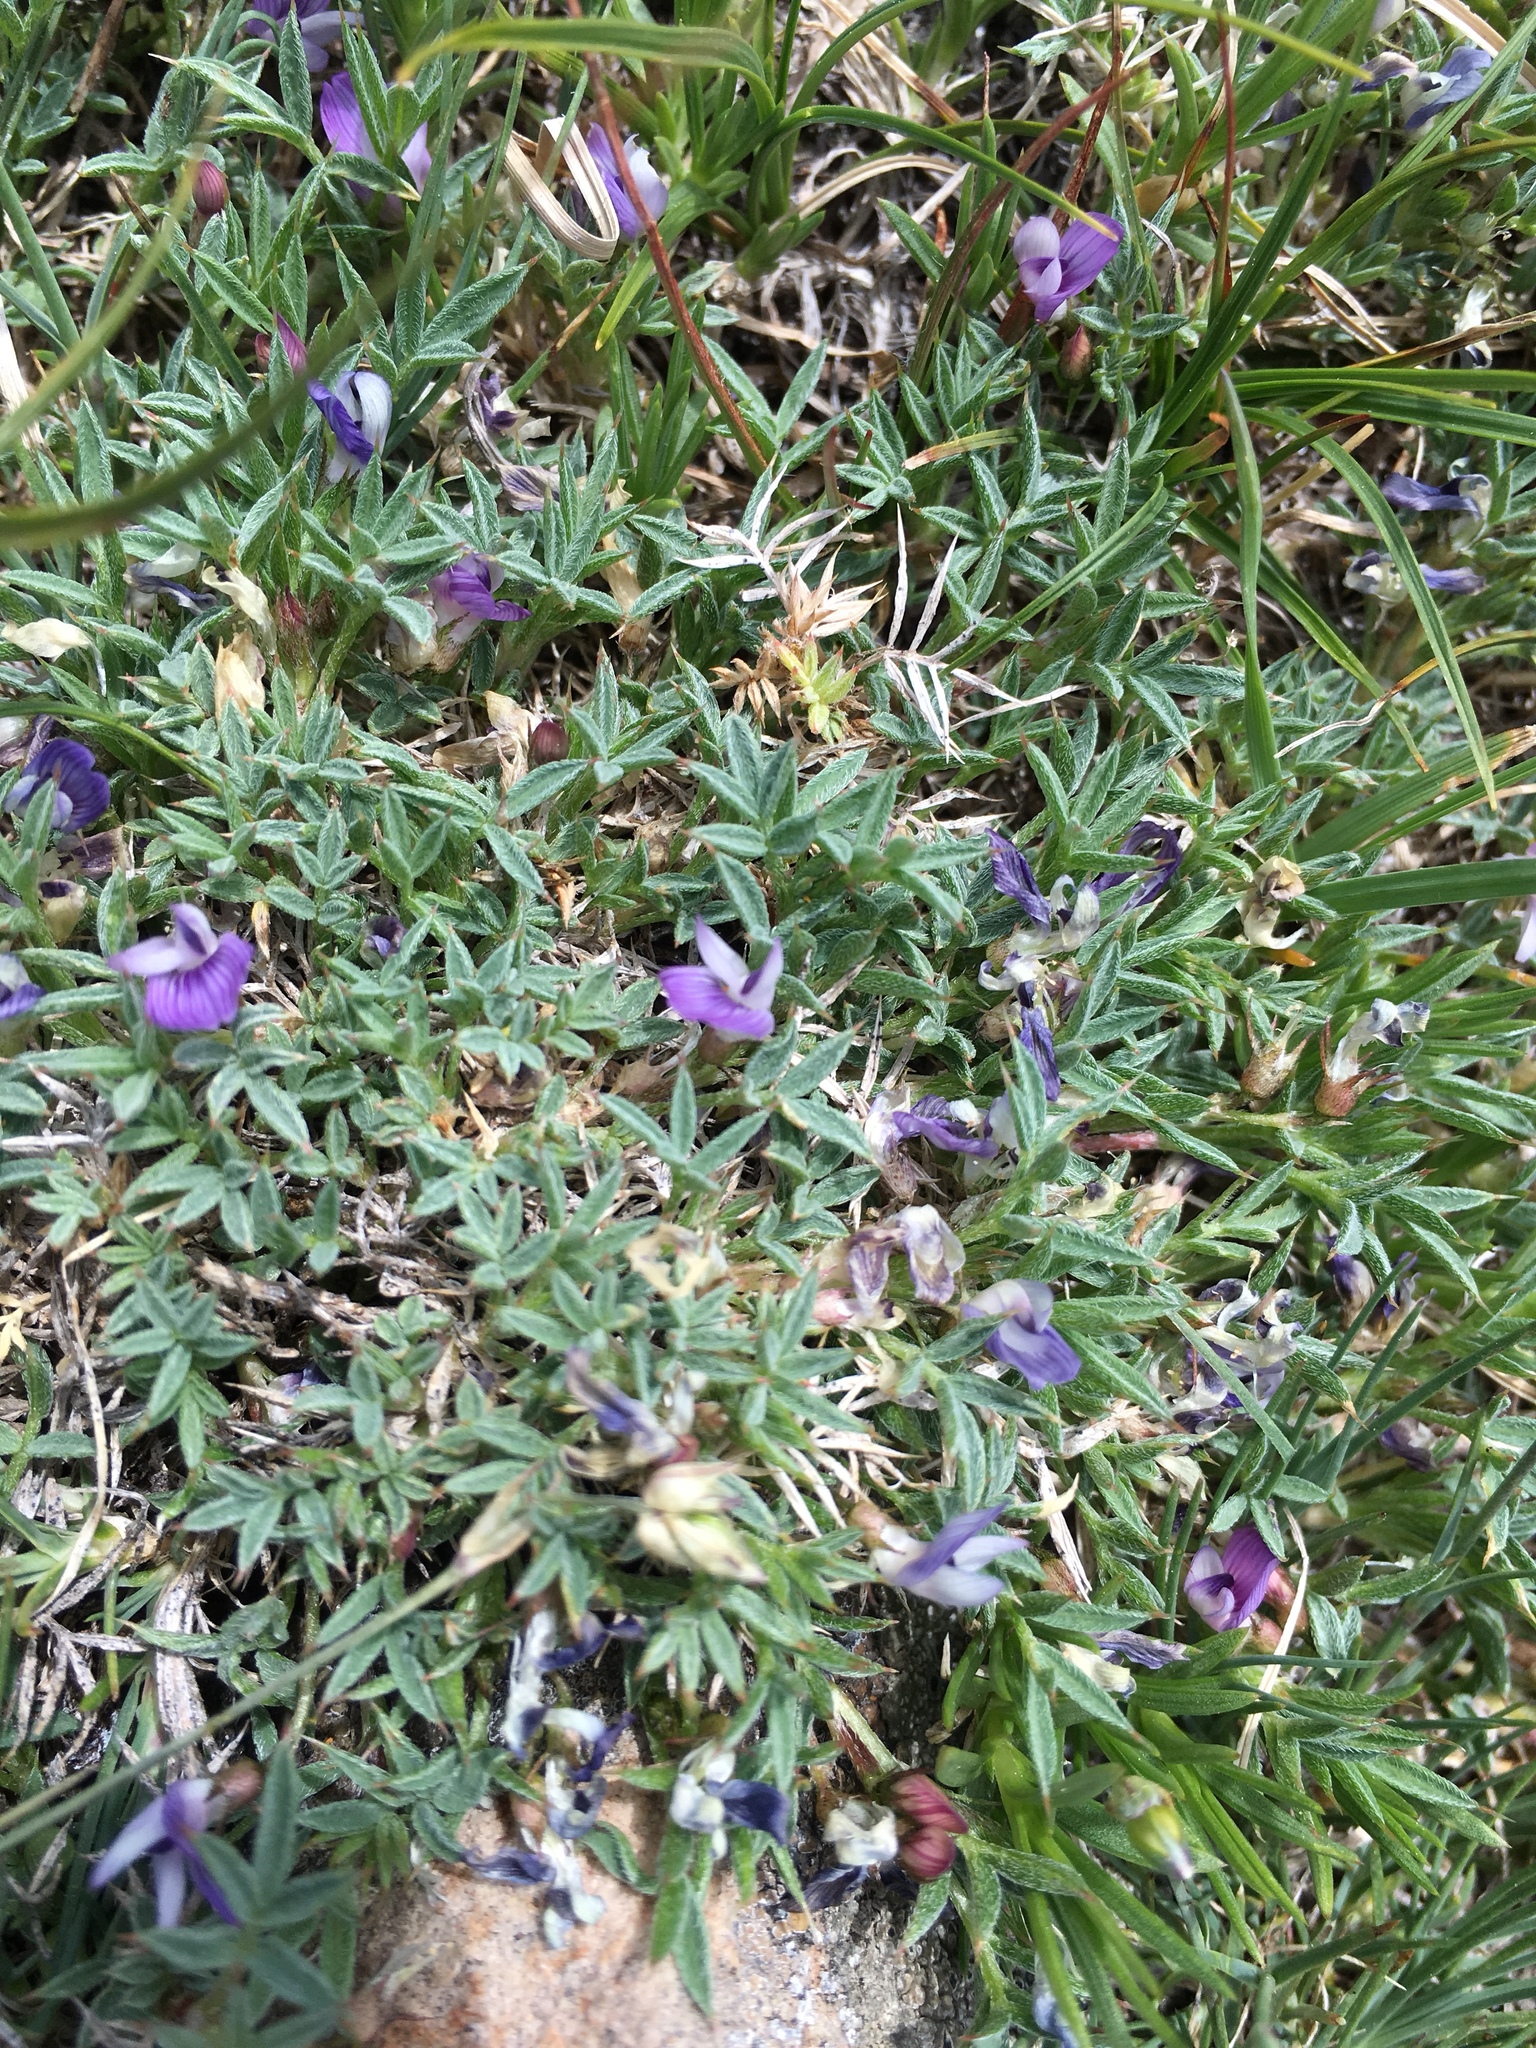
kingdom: Plantae
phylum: Tracheophyta
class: Magnoliopsida
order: Fabales
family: Fabaceae
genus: Astragalus
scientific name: Astragalus kentrophyta
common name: Prickly milk-vetch
